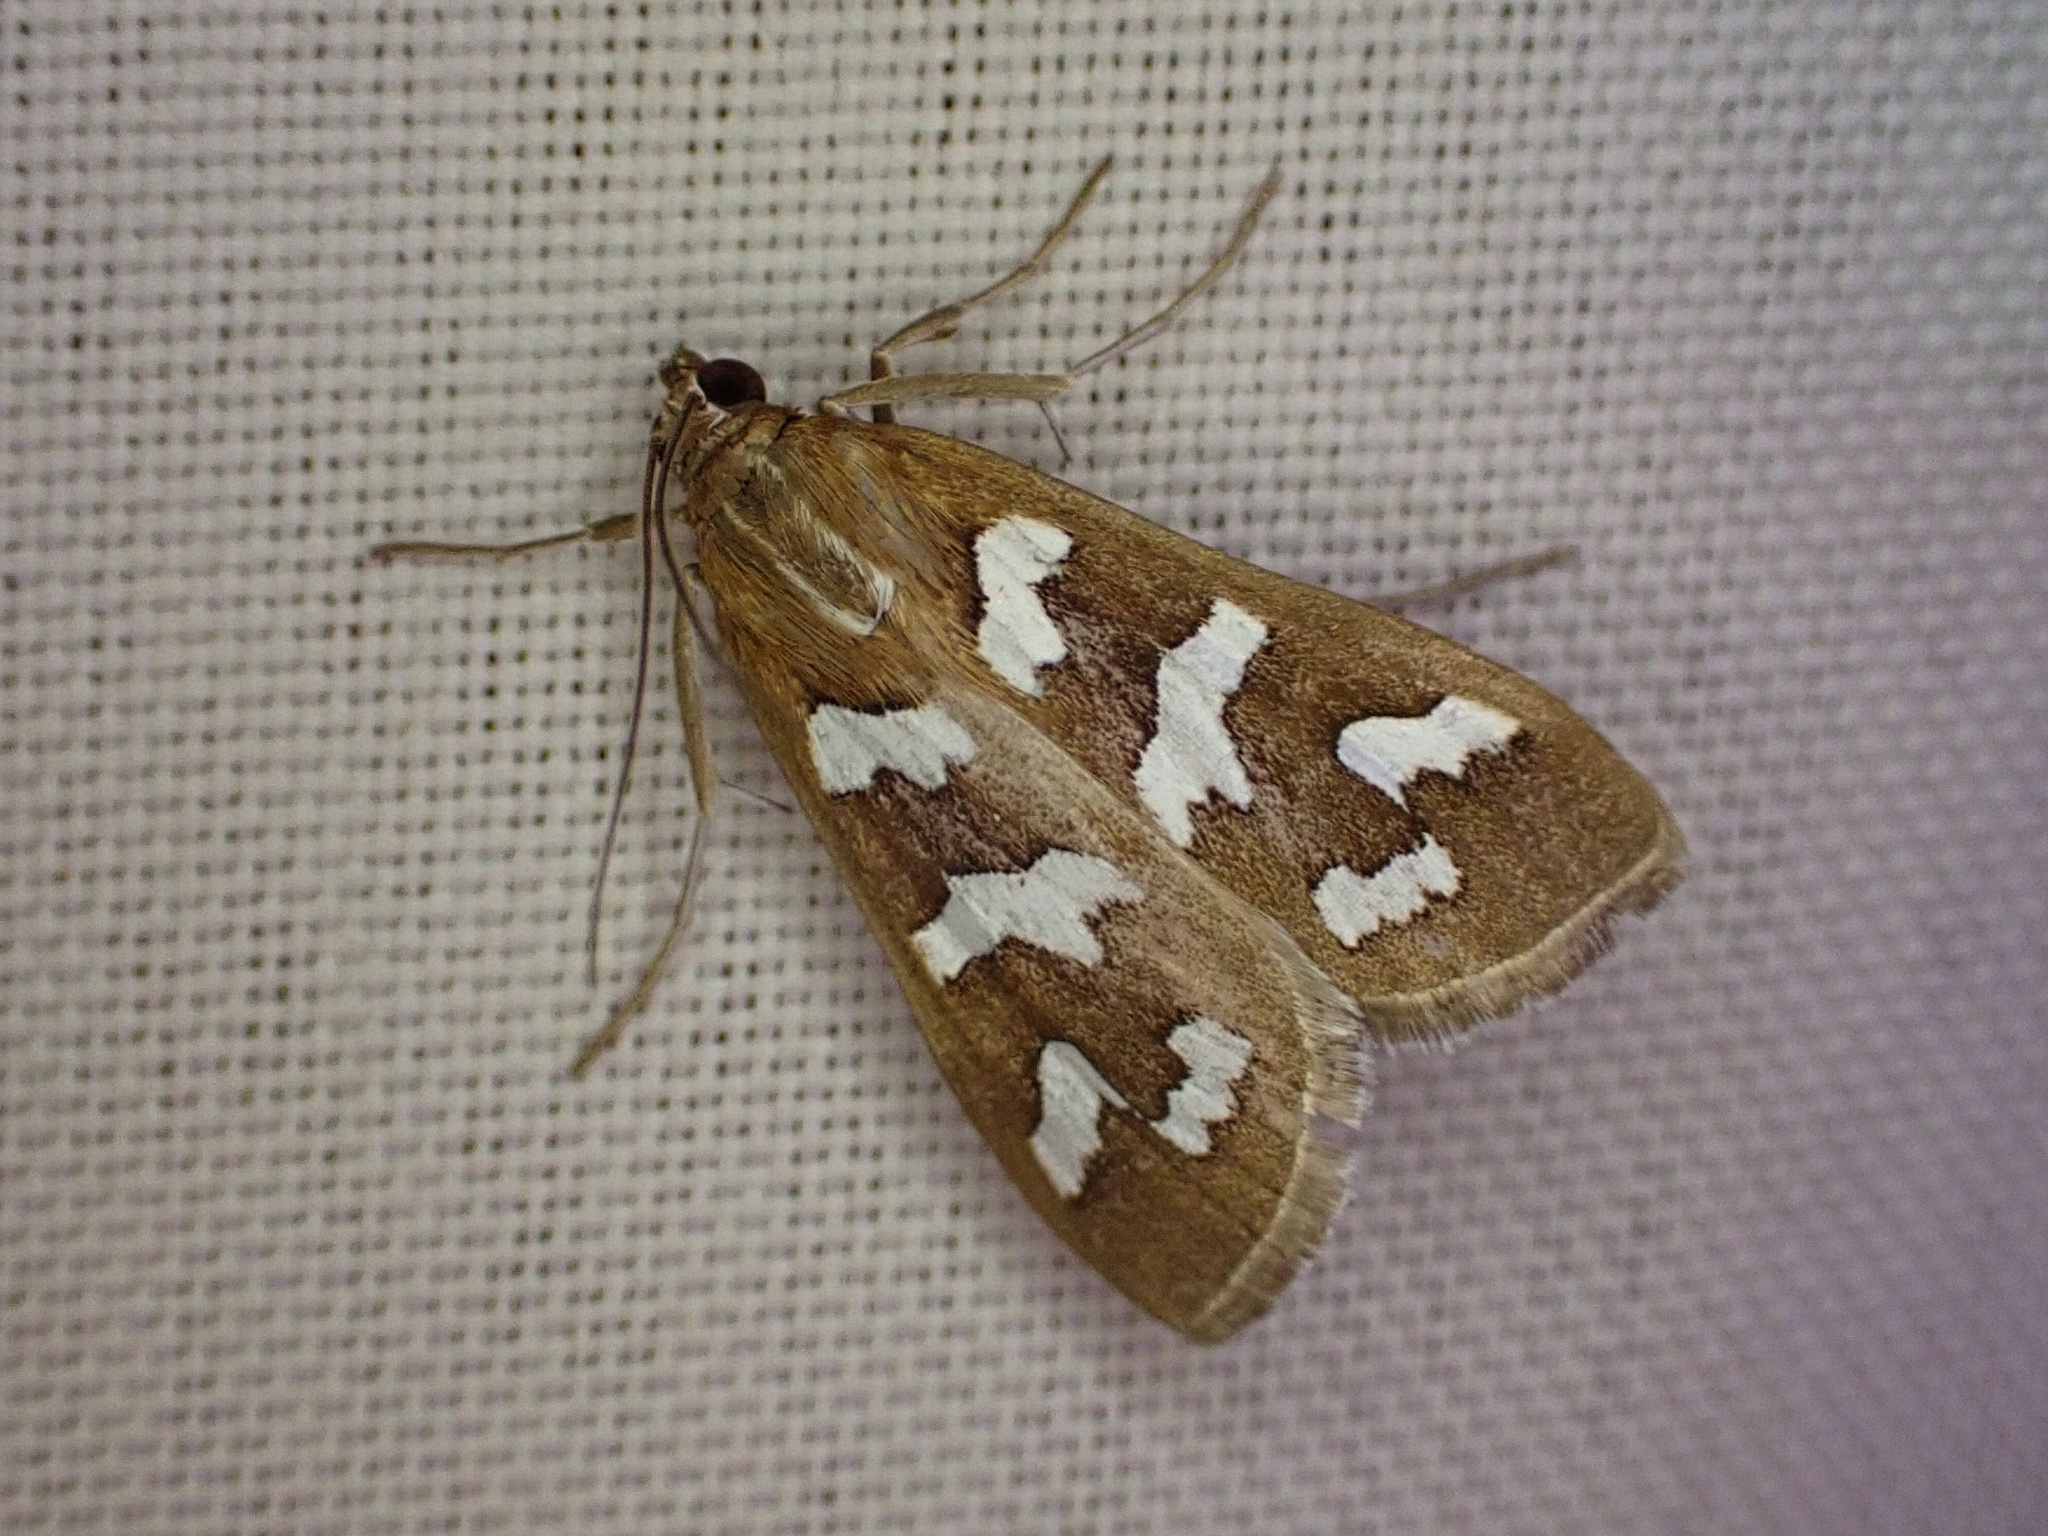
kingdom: Animalia
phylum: Arthropoda
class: Insecta
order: Lepidoptera
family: Crambidae
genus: Diastictis
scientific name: Diastictis fracturalis
